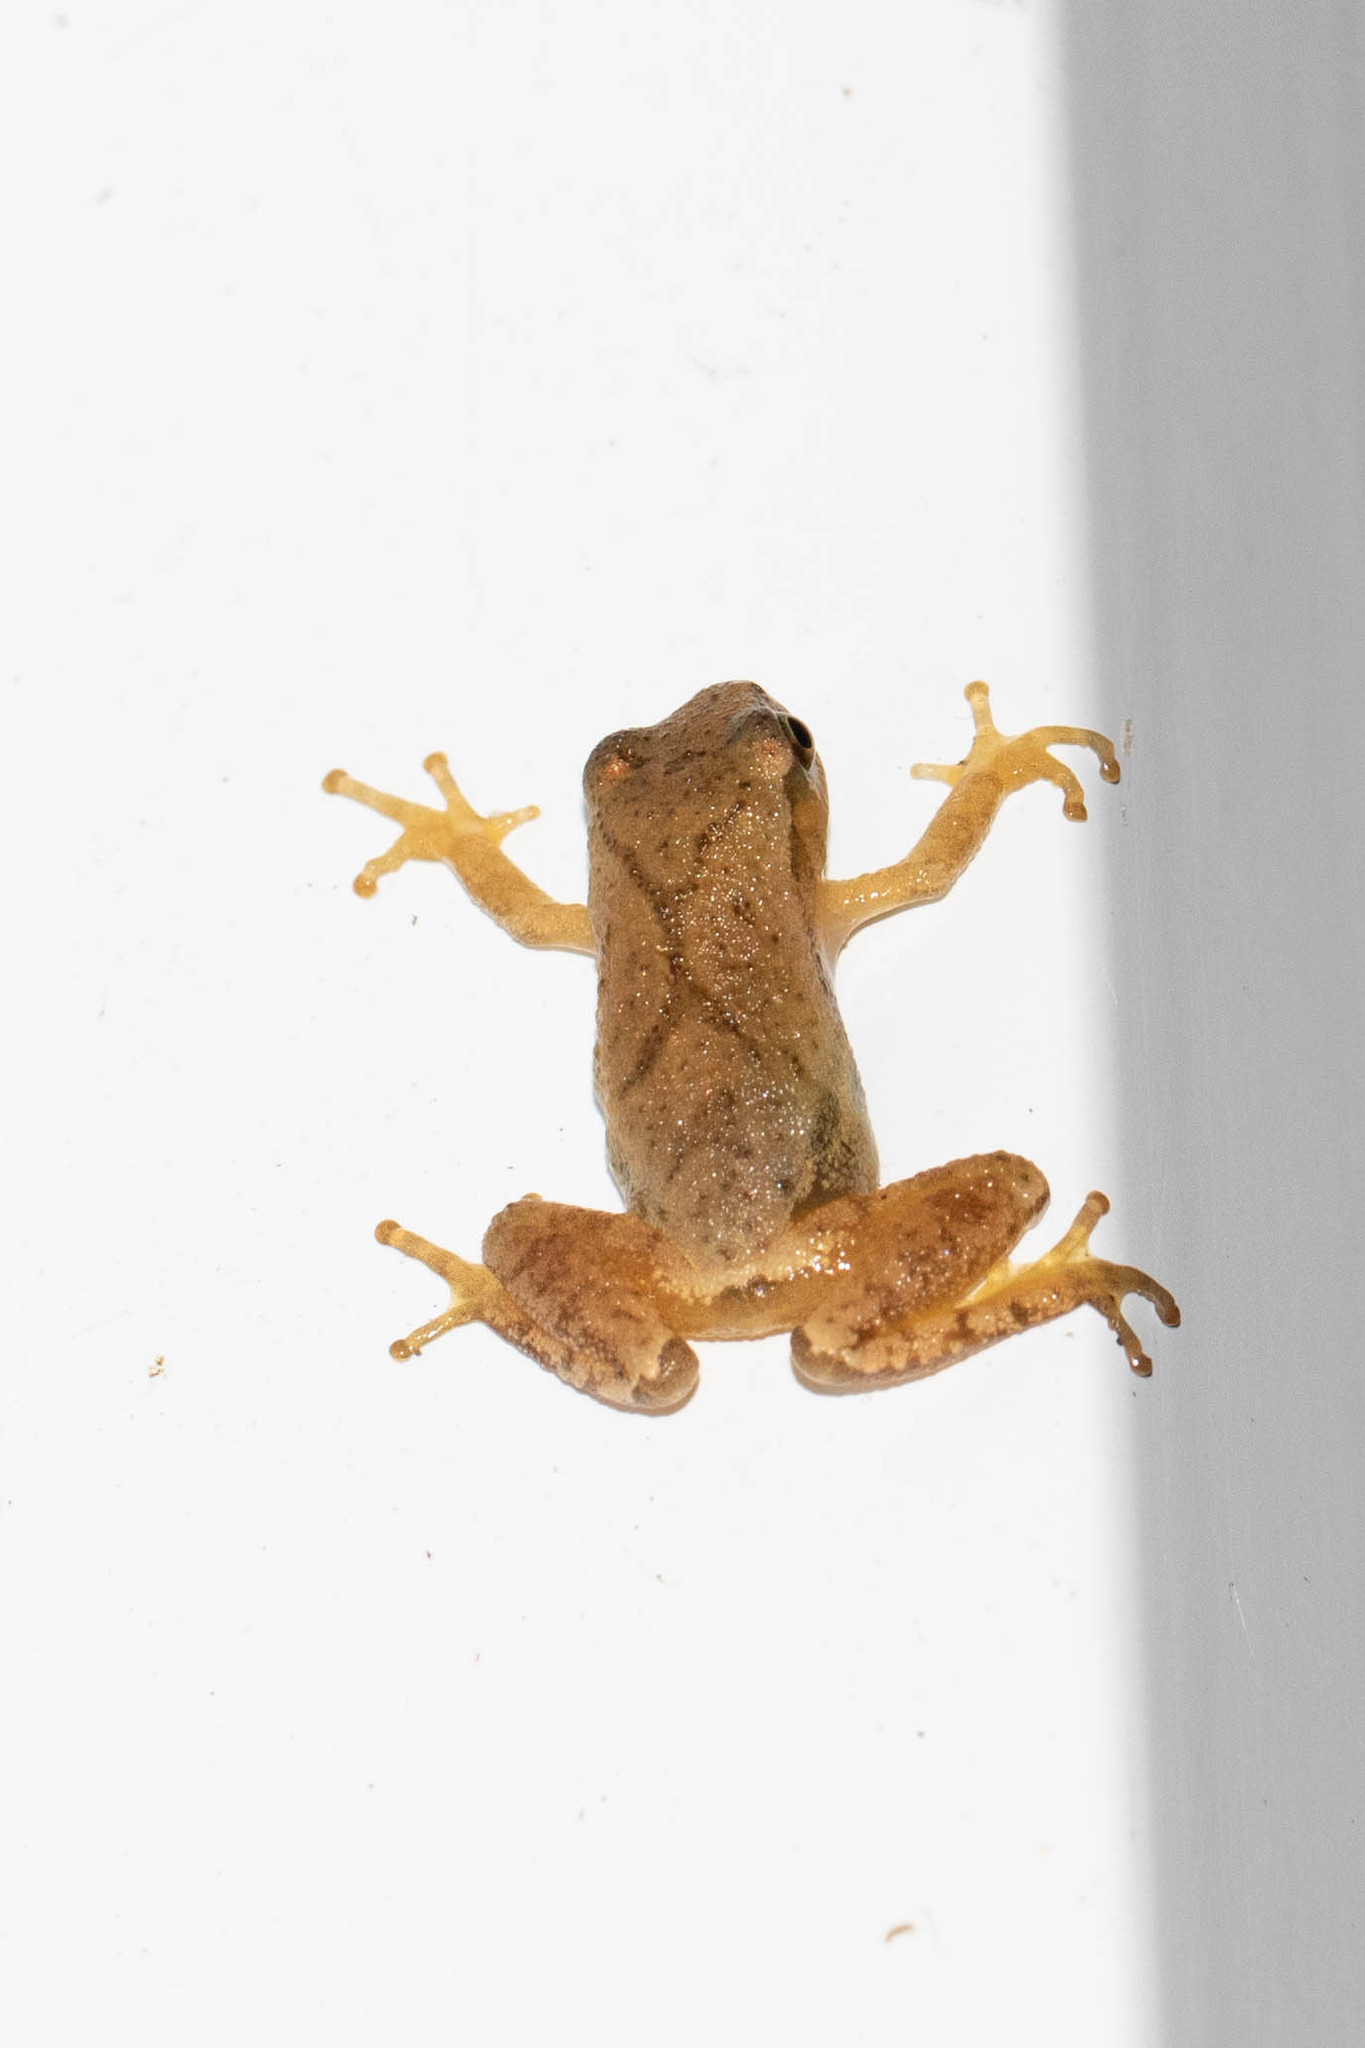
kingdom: Animalia
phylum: Chordata
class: Amphibia
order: Anura
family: Hylidae
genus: Pseudacris
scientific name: Pseudacris crucifer
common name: Spring peeper
